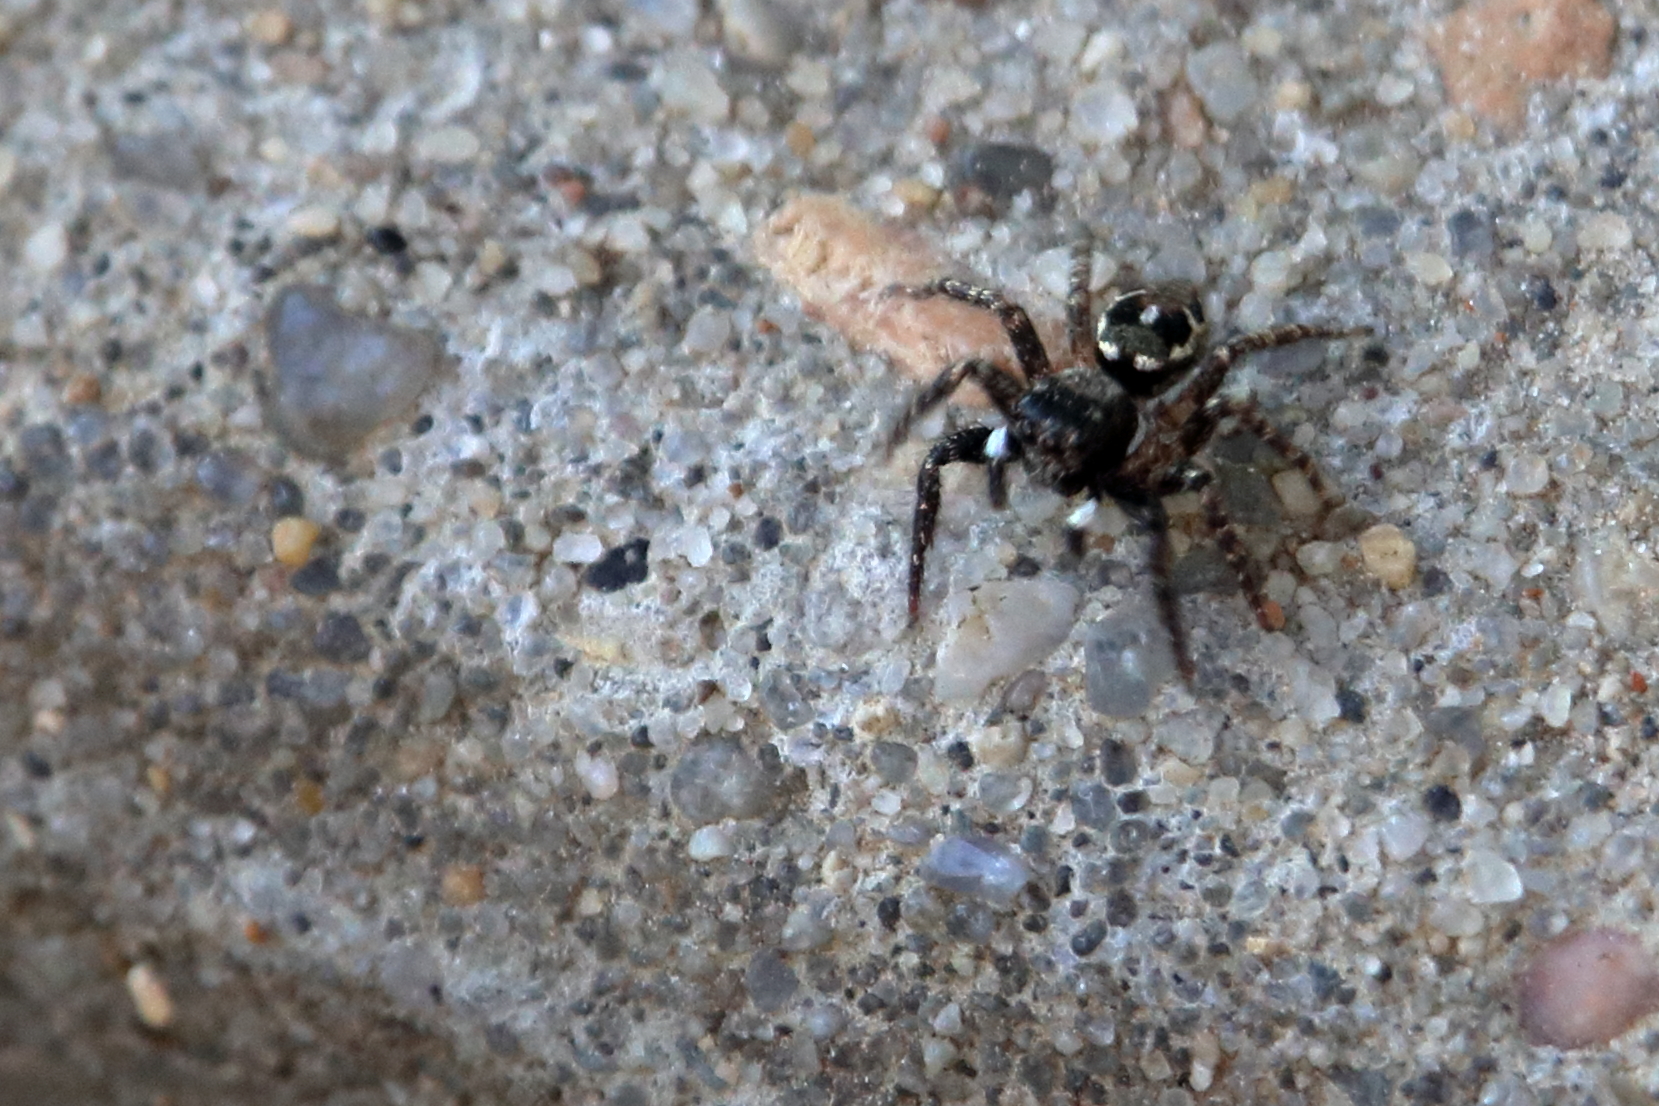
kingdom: Animalia
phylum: Arthropoda
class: Arachnida
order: Araneae
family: Salticidae
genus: Anasaitis
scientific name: Anasaitis canosa
